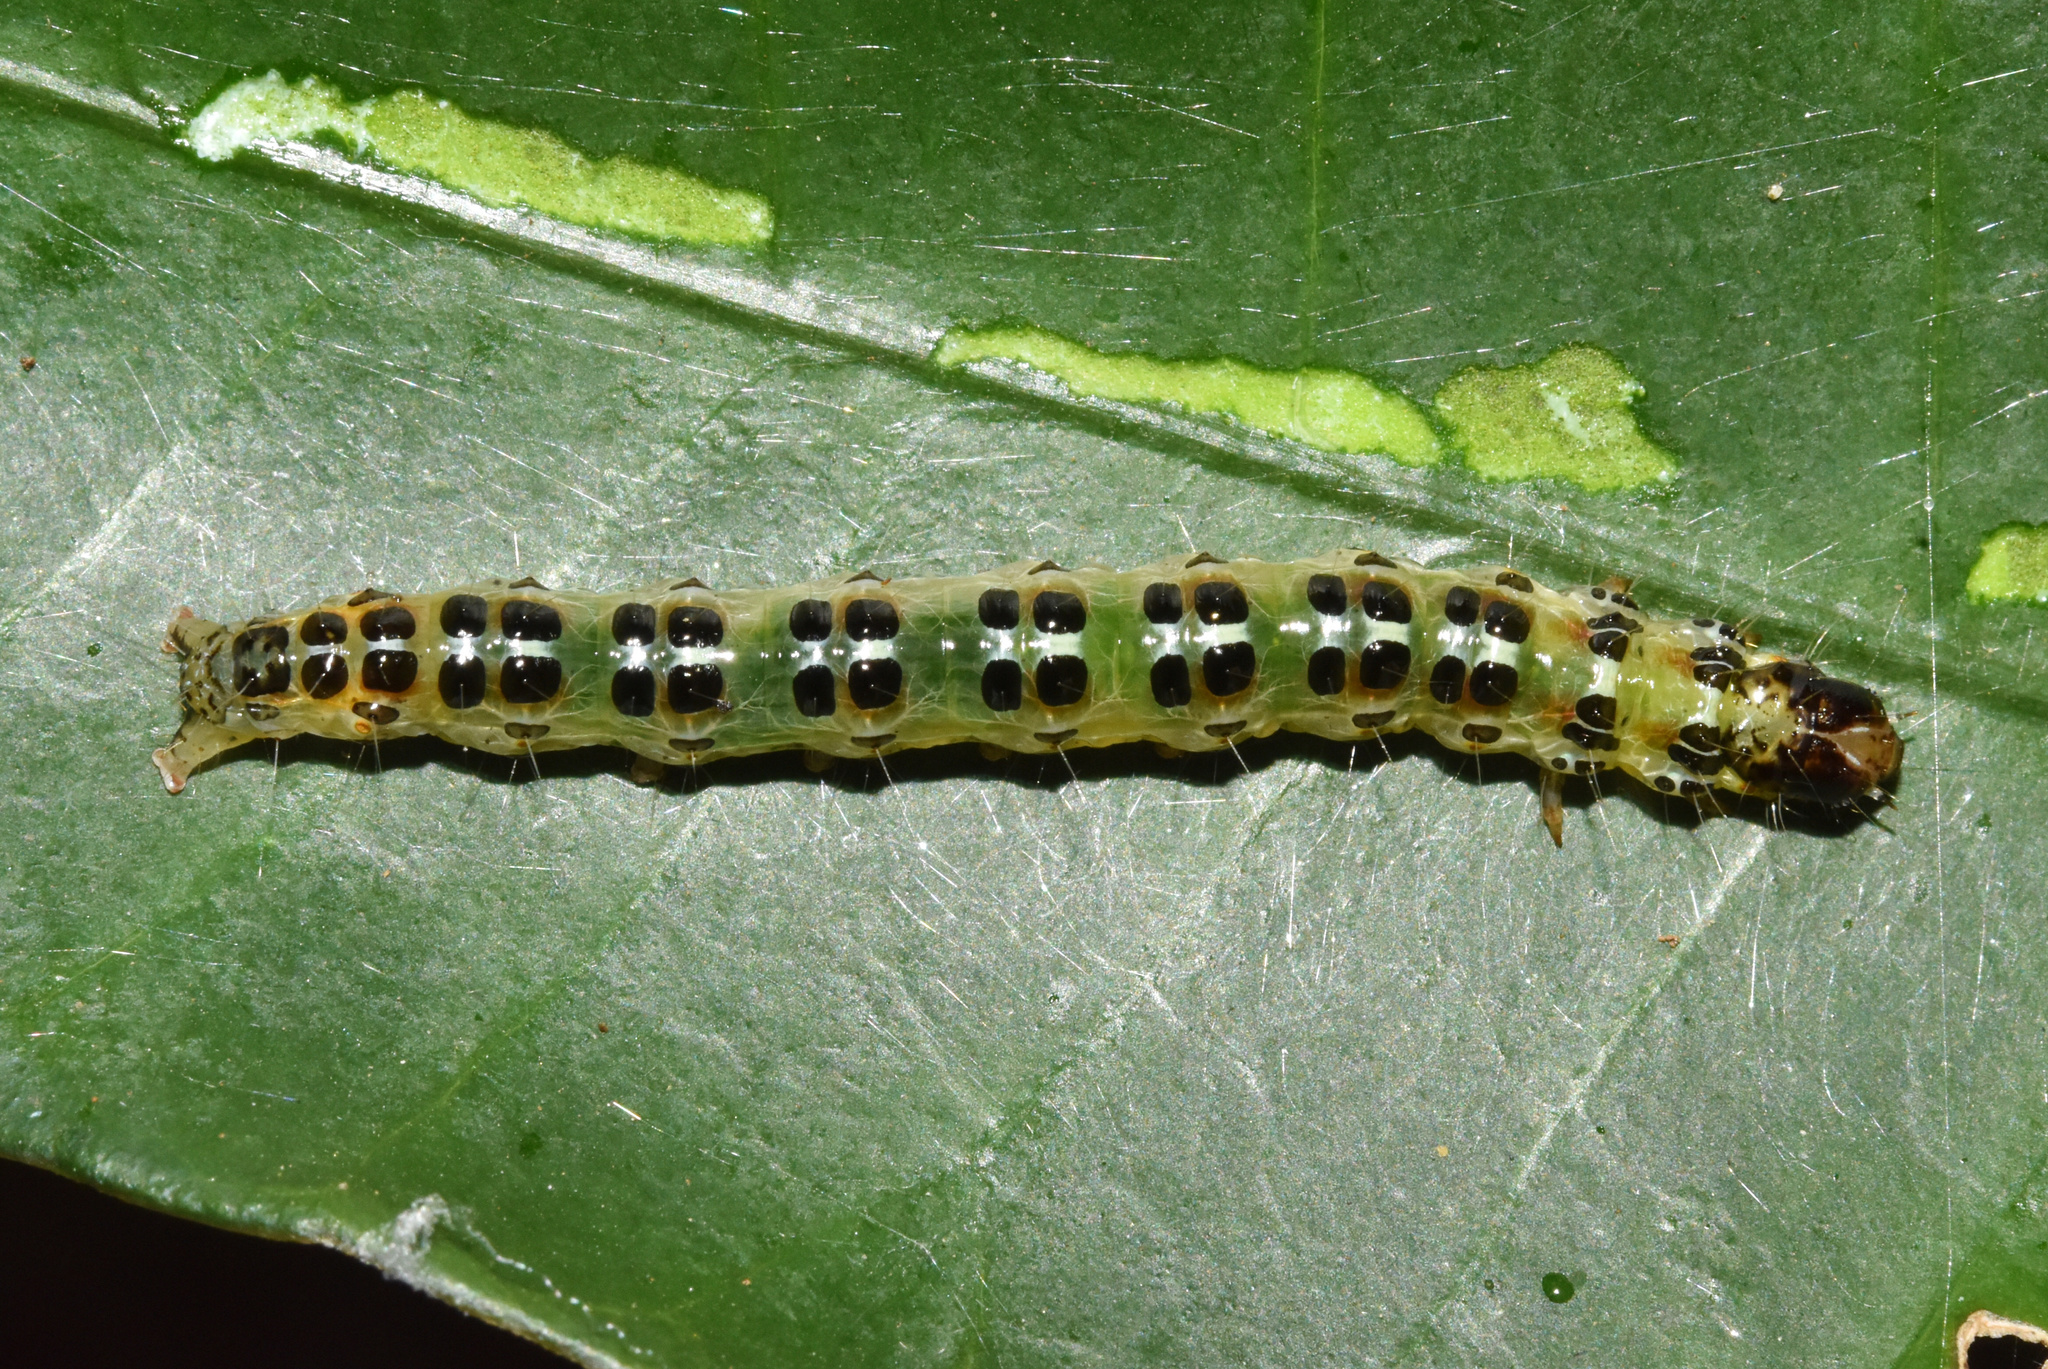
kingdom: Animalia
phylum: Arthropoda
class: Insecta
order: Lepidoptera
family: Crambidae
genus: Stemorrhages
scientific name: Stemorrhages sericea
